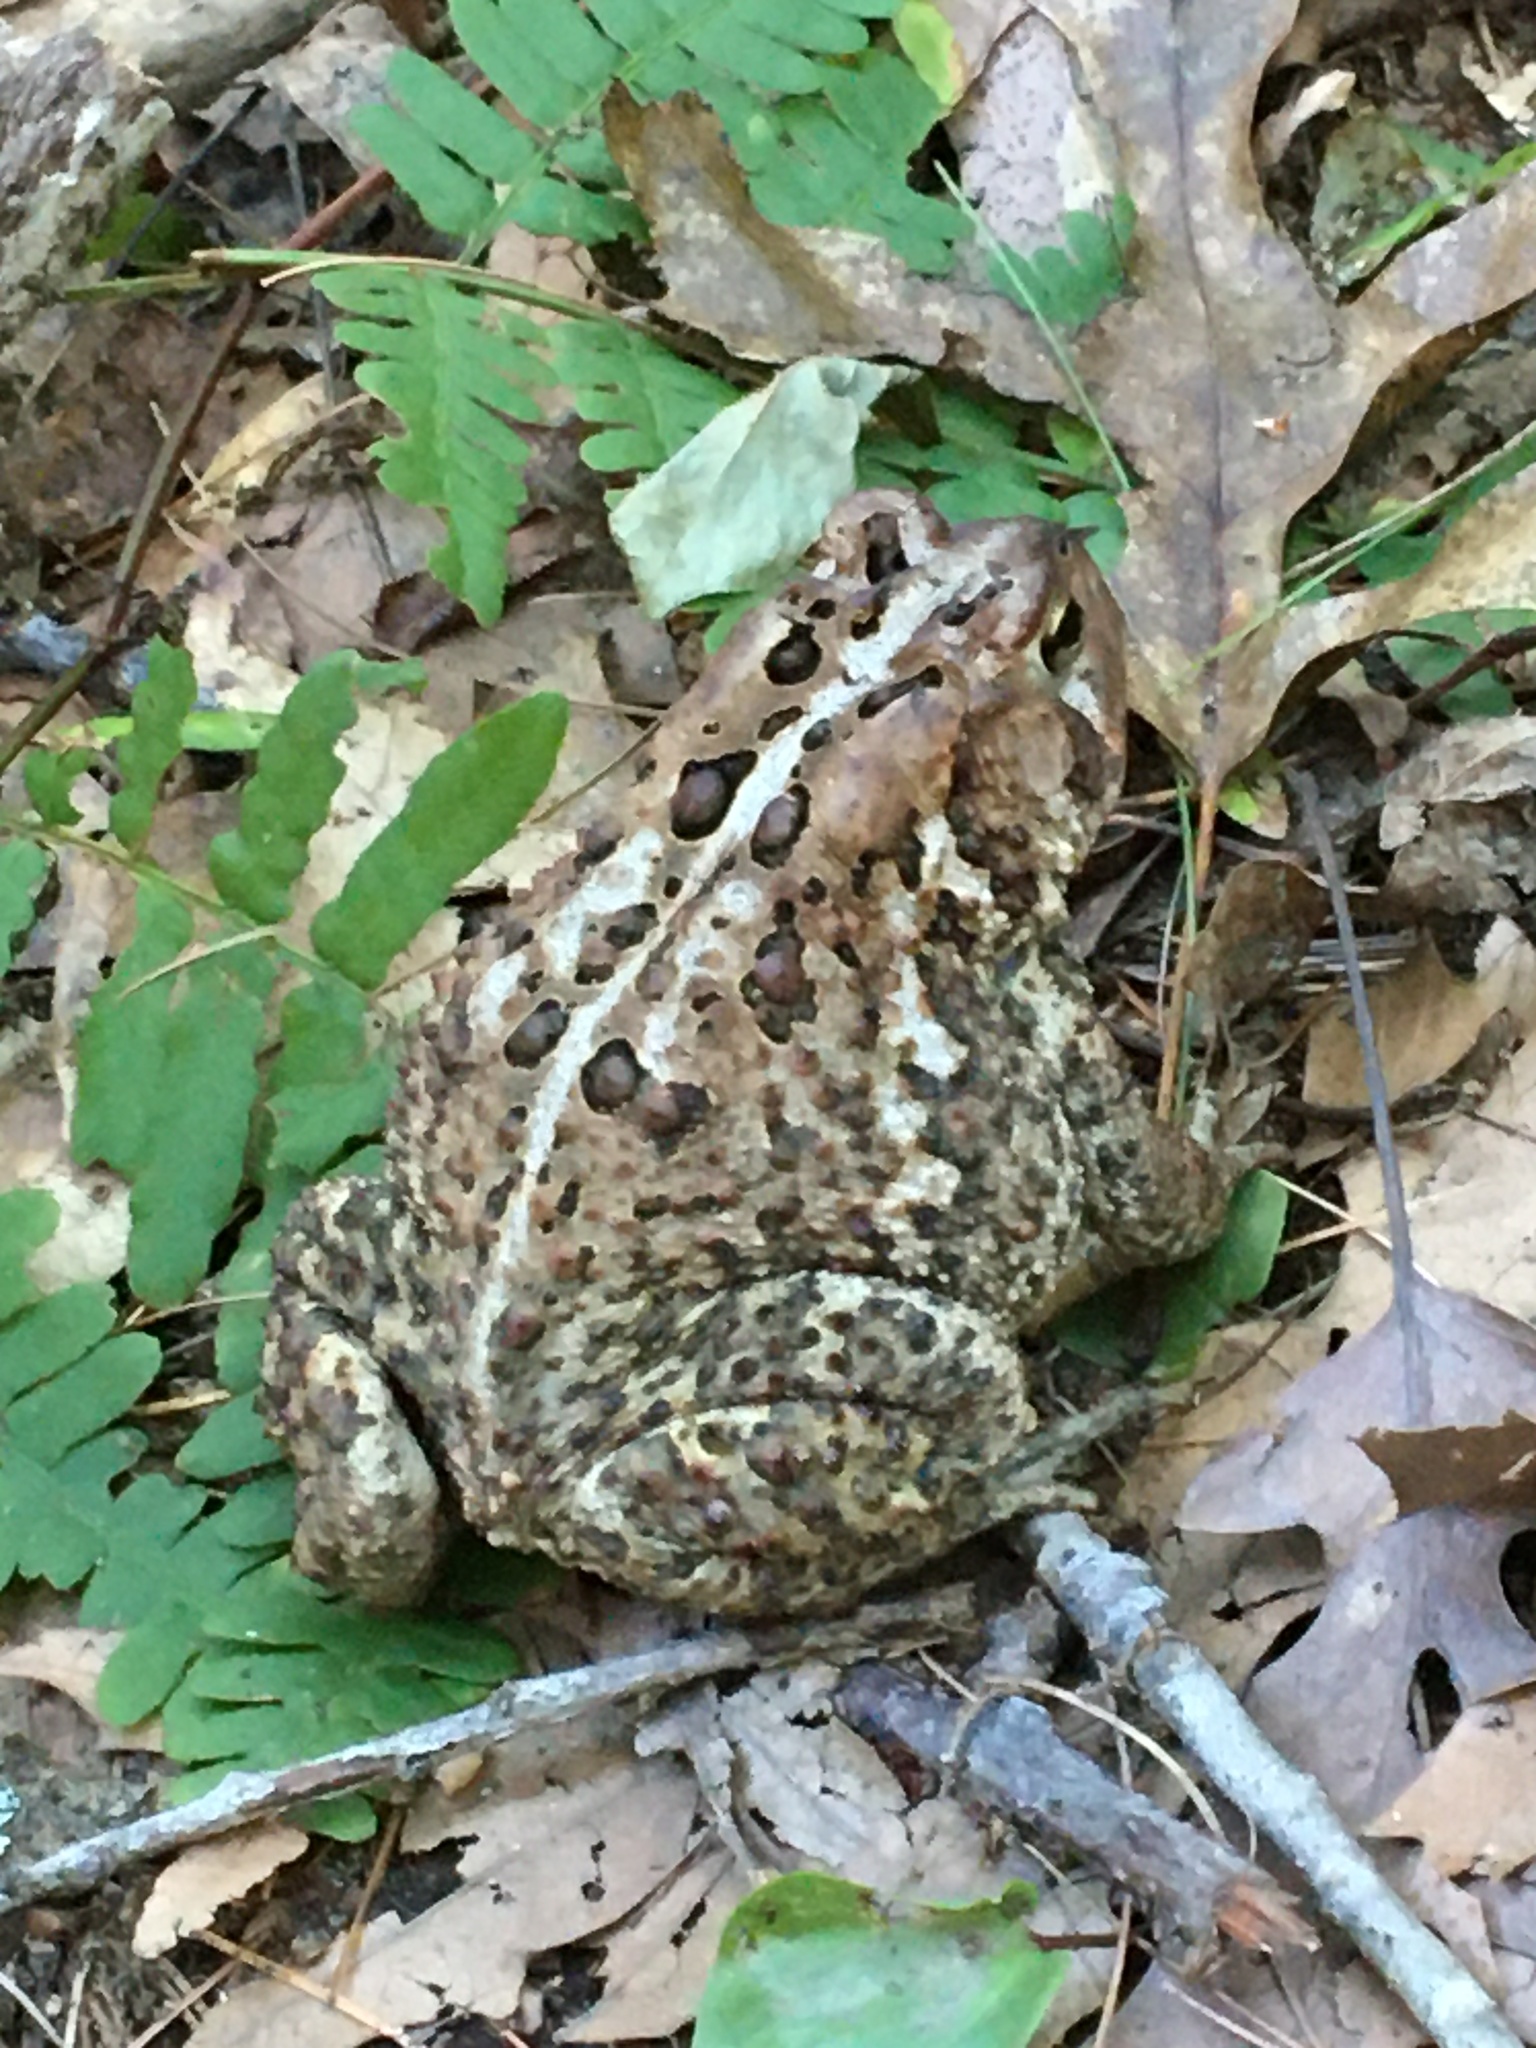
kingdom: Animalia
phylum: Chordata
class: Amphibia
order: Anura
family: Bufonidae
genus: Anaxyrus
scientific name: Anaxyrus americanus
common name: American toad
